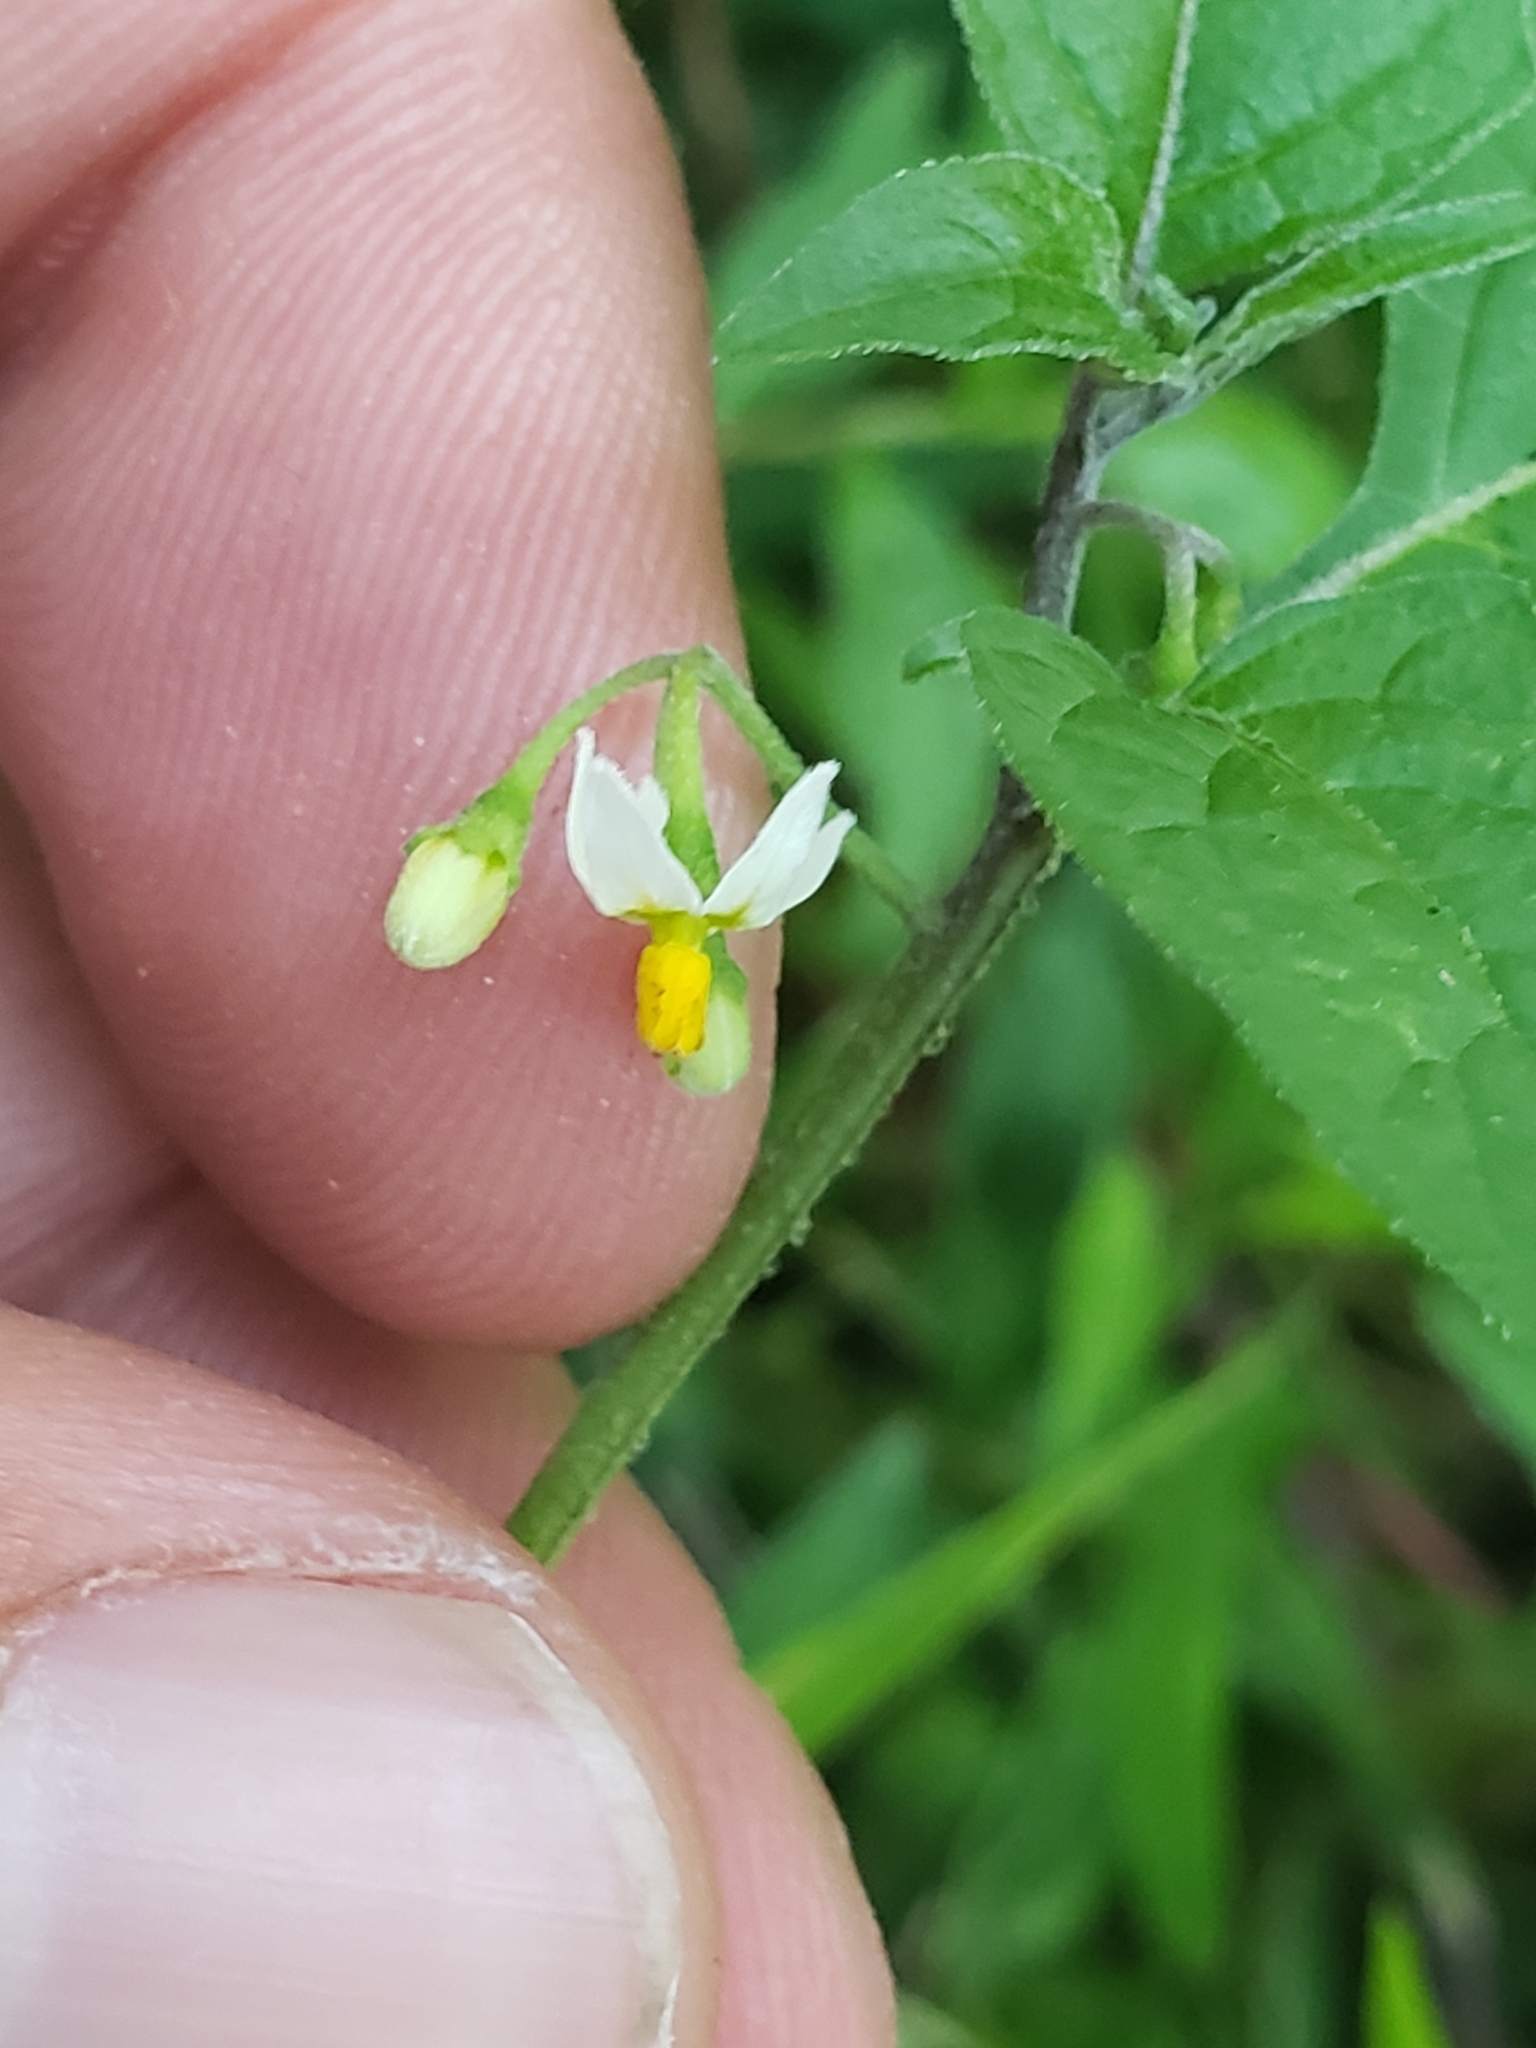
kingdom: Plantae
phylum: Tracheophyta
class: Magnoliopsida
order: Solanales
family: Solanaceae
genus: Solanum
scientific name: Solanum emulans
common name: Eastern black nightshade
